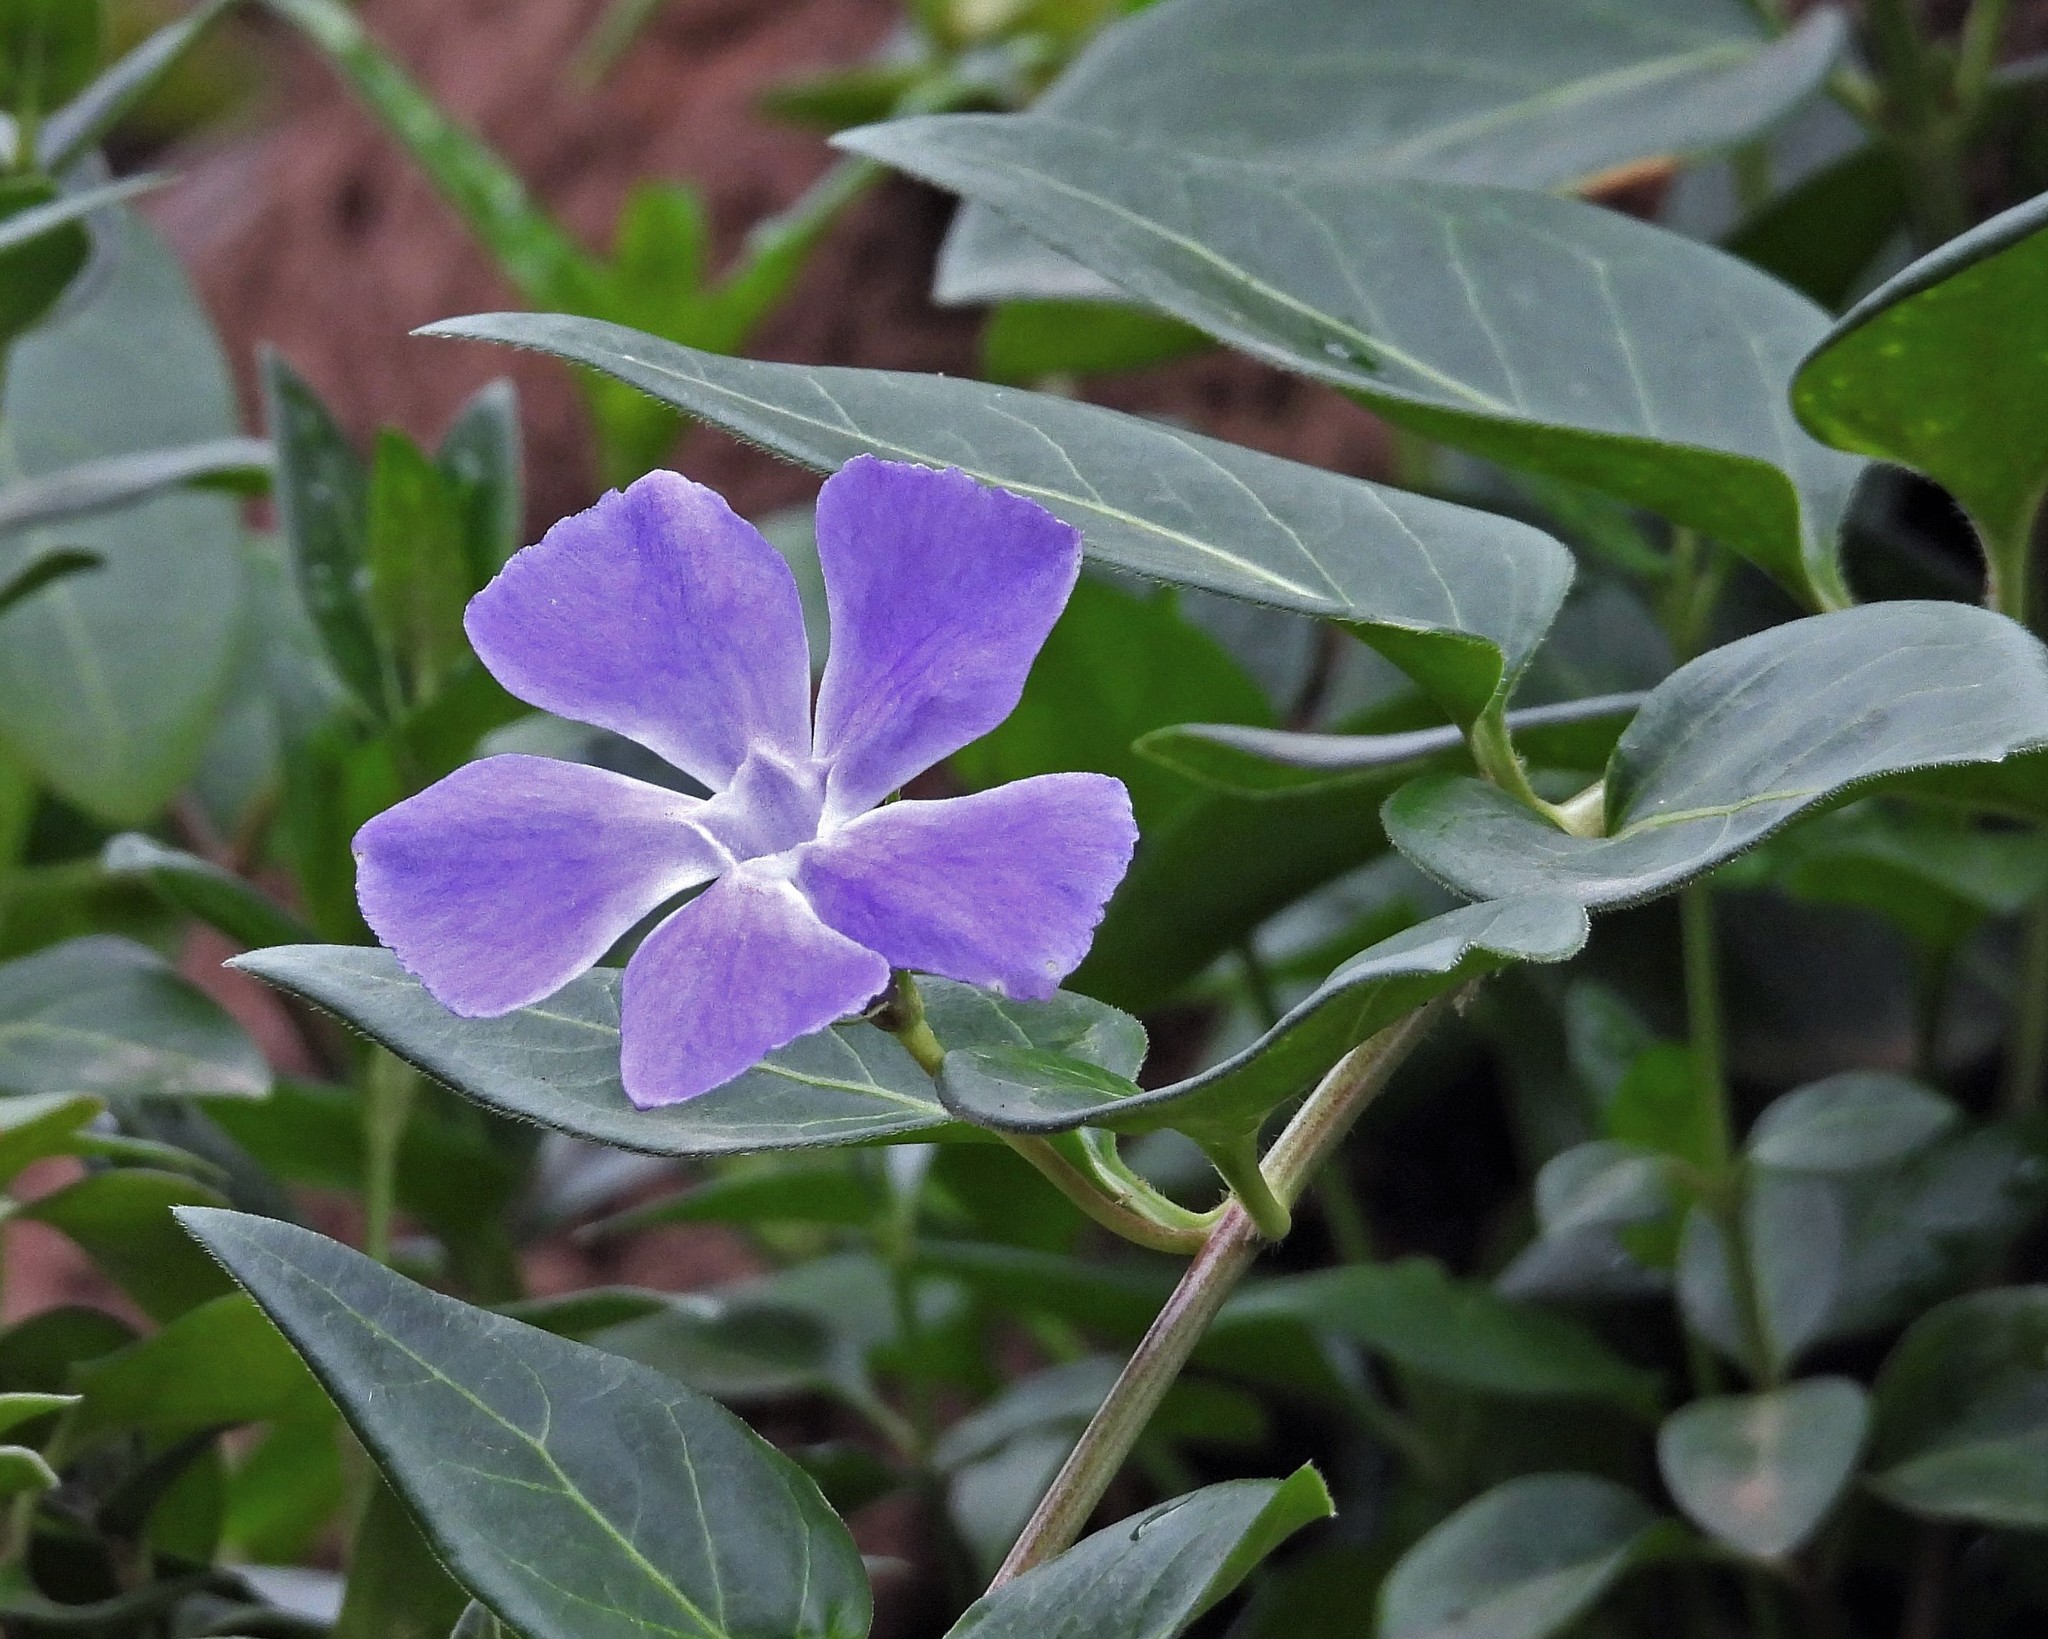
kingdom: Plantae
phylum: Tracheophyta
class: Magnoliopsida
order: Gentianales
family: Apocynaceae
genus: Vinca
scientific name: Vinca major
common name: Greater periwinkle
